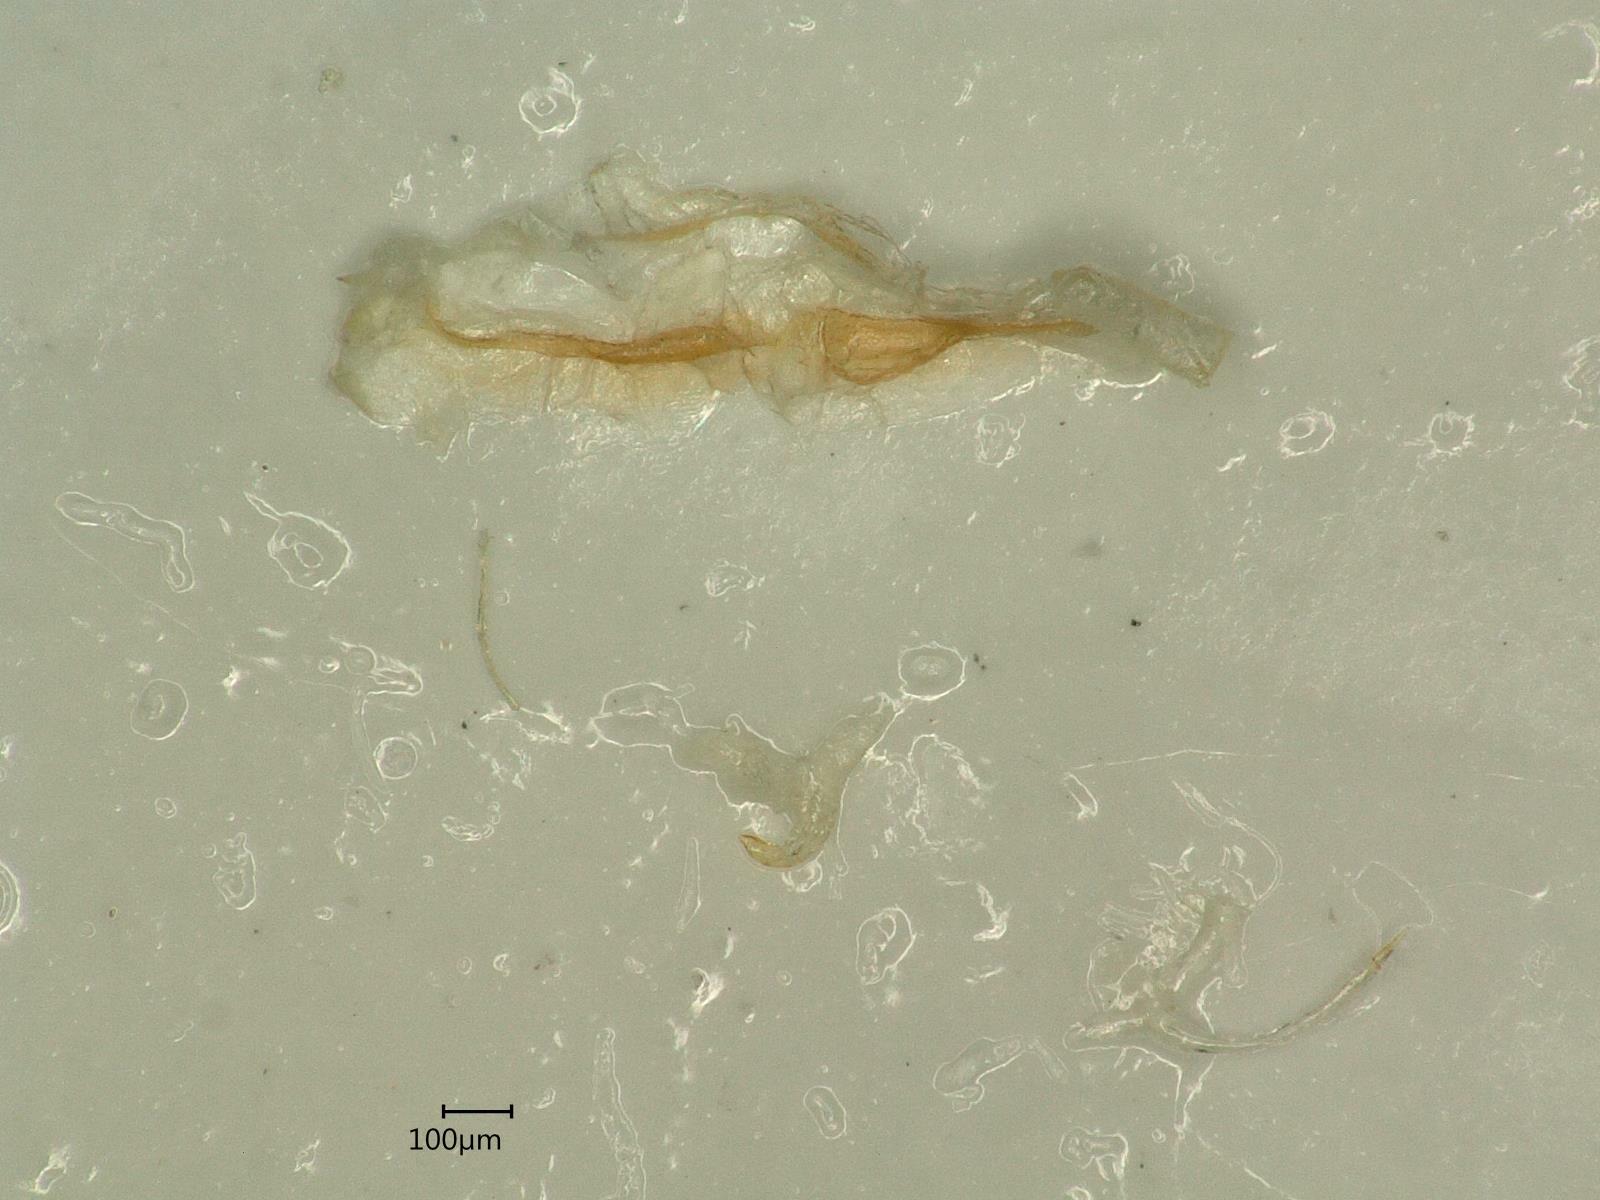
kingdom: Animalia
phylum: Arthropoda
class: Insecta
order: Hemiptera
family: Cicadellidae
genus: Kybos
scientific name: Kybos strobli
